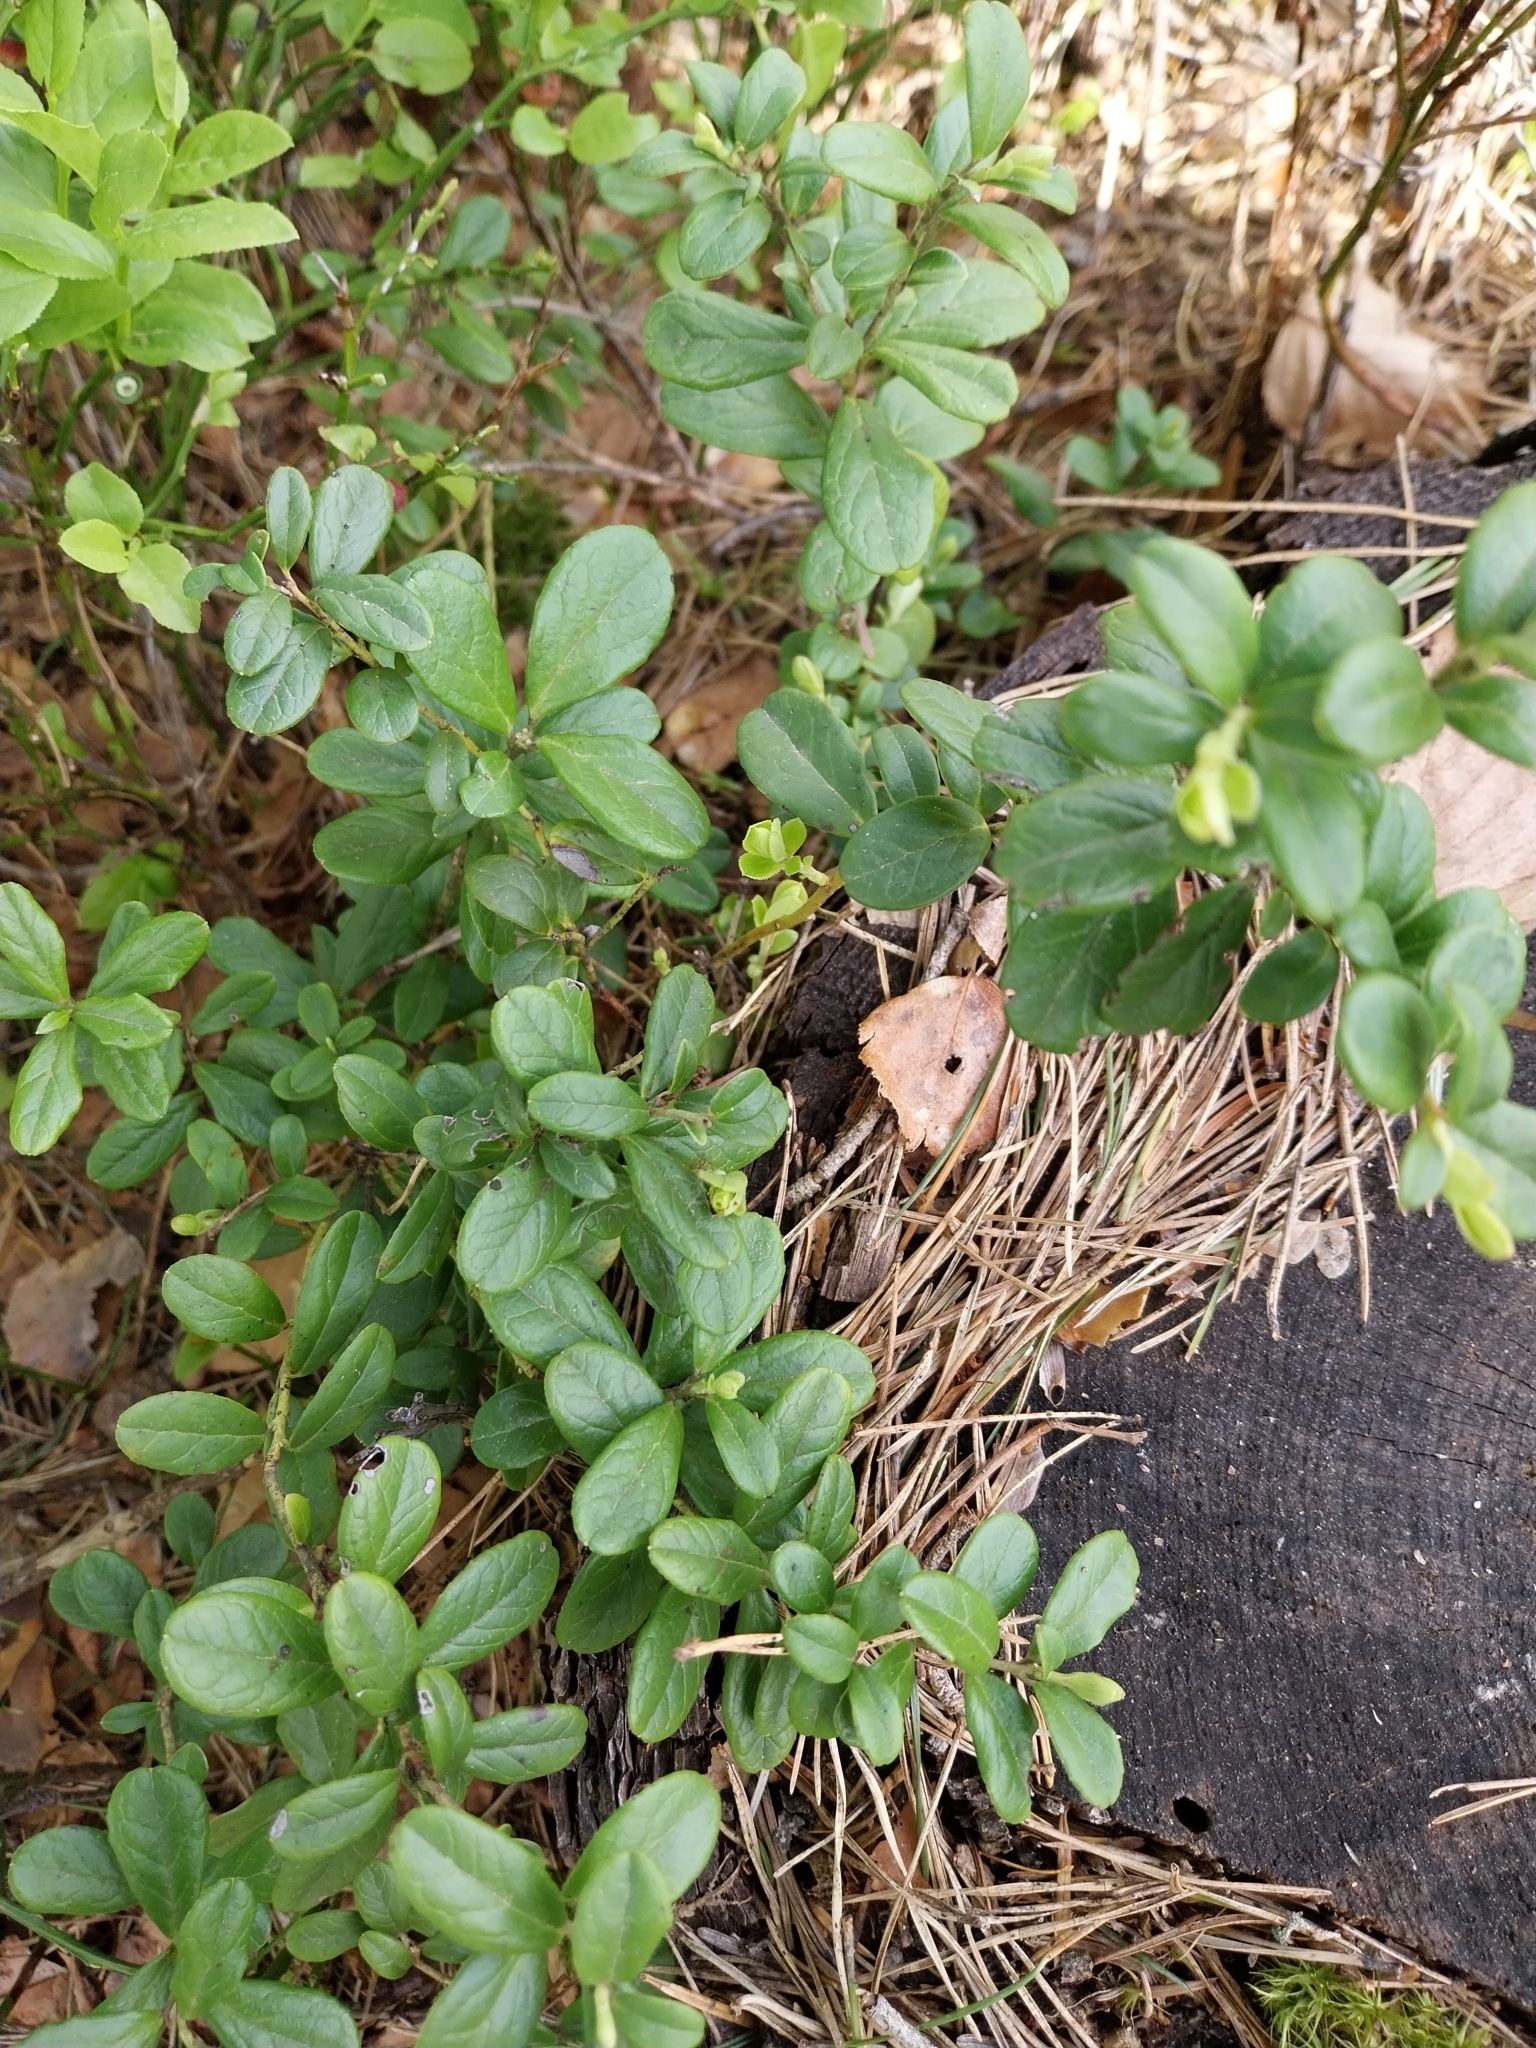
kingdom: Plantae
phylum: Tracheophyta
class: Magnoliopsida
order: Ericales
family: Ericaceae
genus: Vaccinium
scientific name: Vaccinium vitis-idaea
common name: Cowberry
